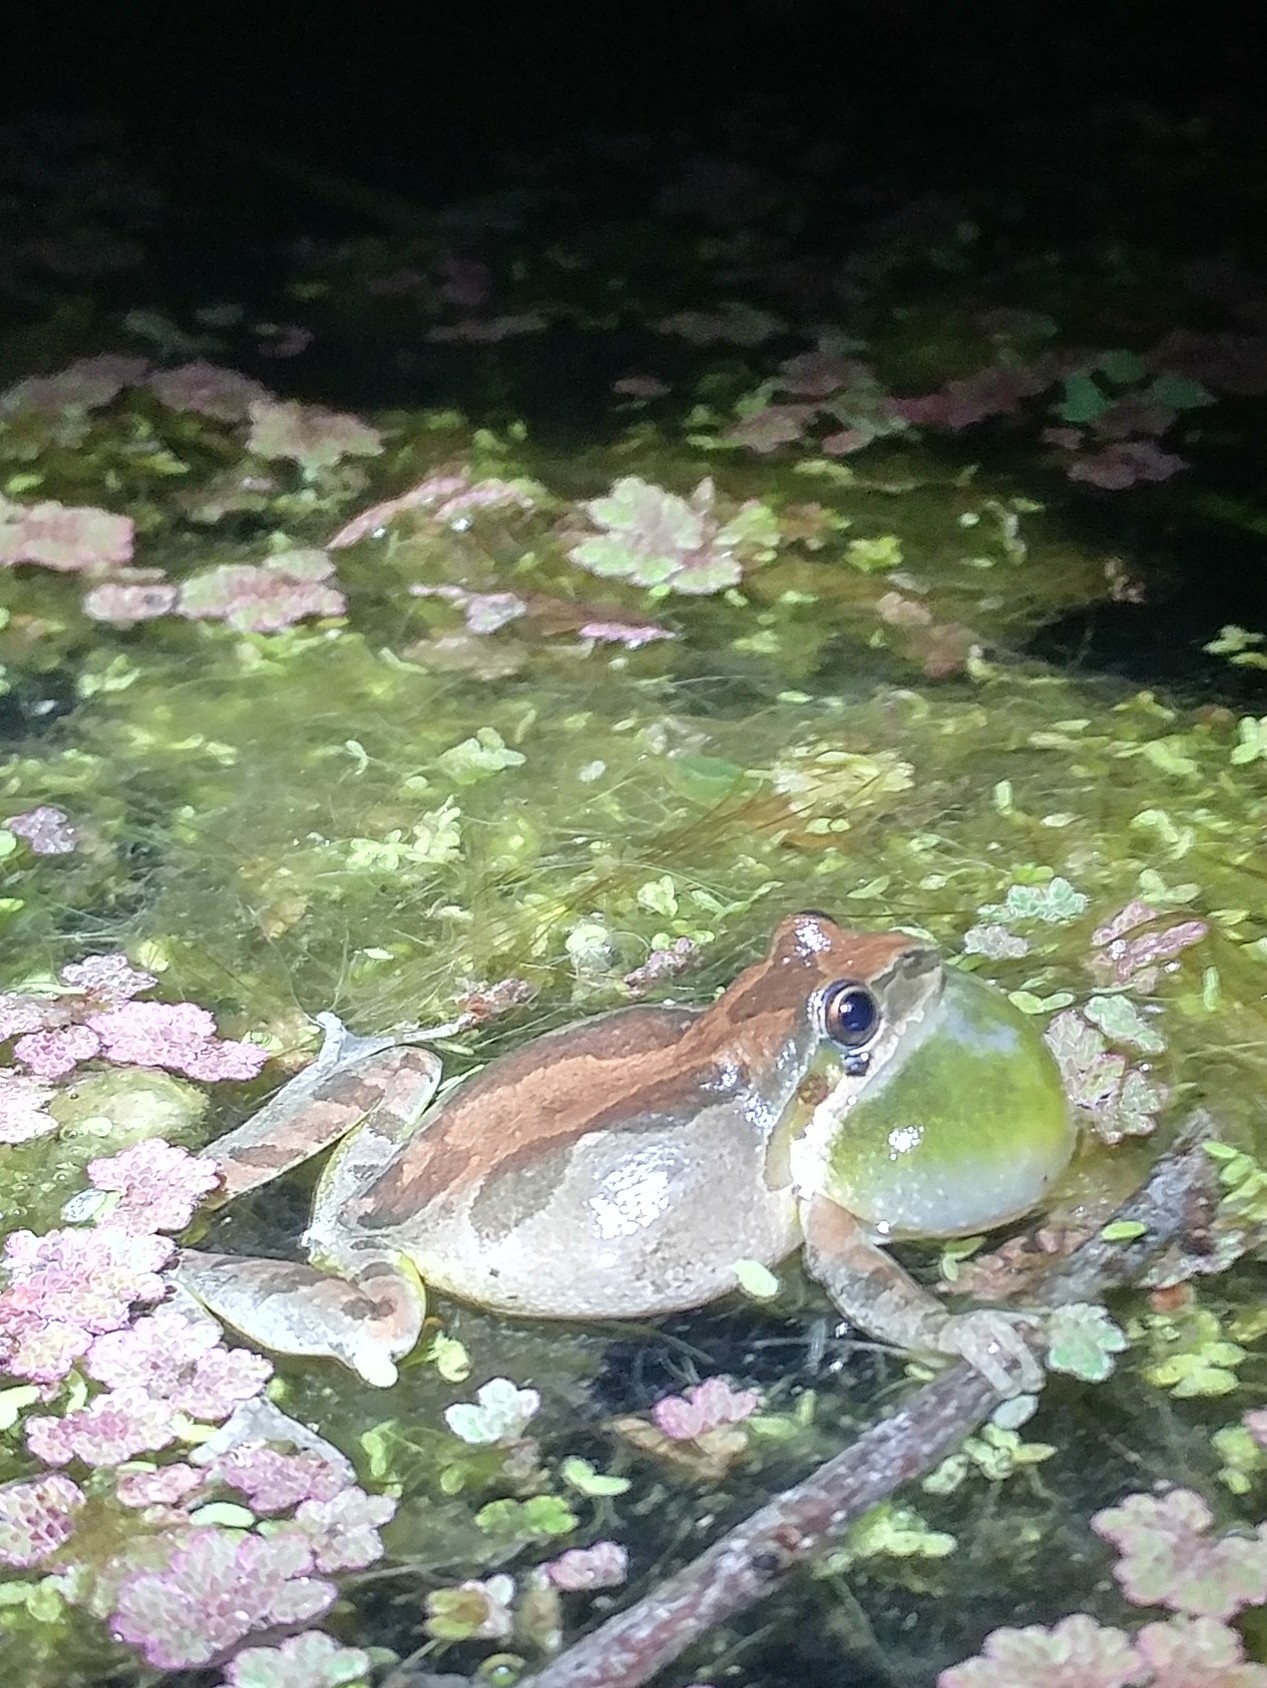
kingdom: Animalia
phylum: Chordata
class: Amphibia
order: Anura
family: Hylidae
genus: Pseudacris
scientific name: Pseudacris regilla
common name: Pacific chorus frog
